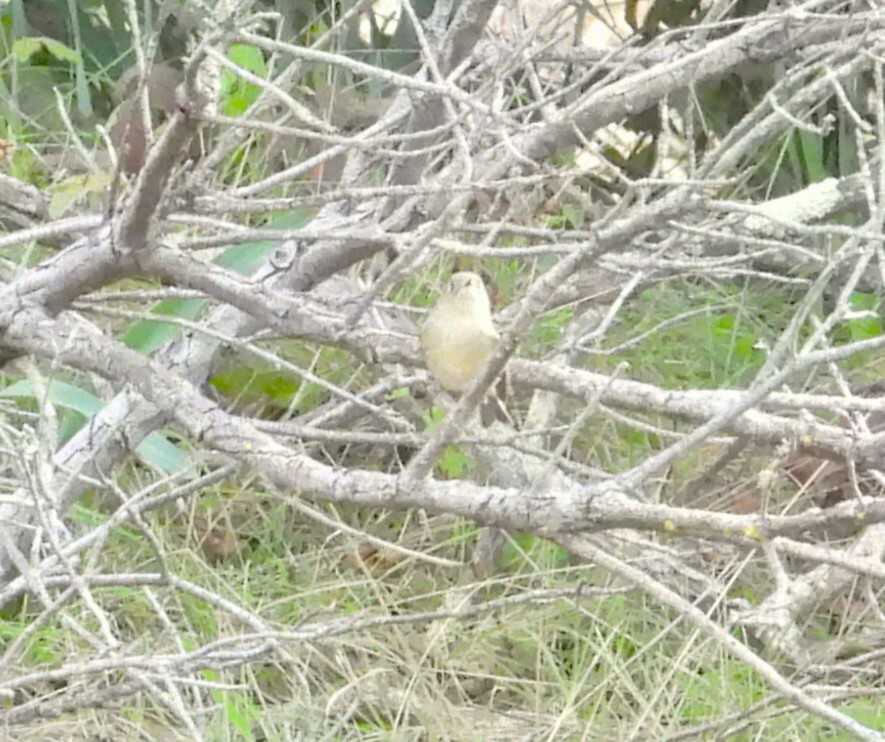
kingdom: Animalia
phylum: Chordata
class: Aves
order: Passeriformes
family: Regulidae
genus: Regulus
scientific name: Regulus calendula
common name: Ruby-crowned kinglet
